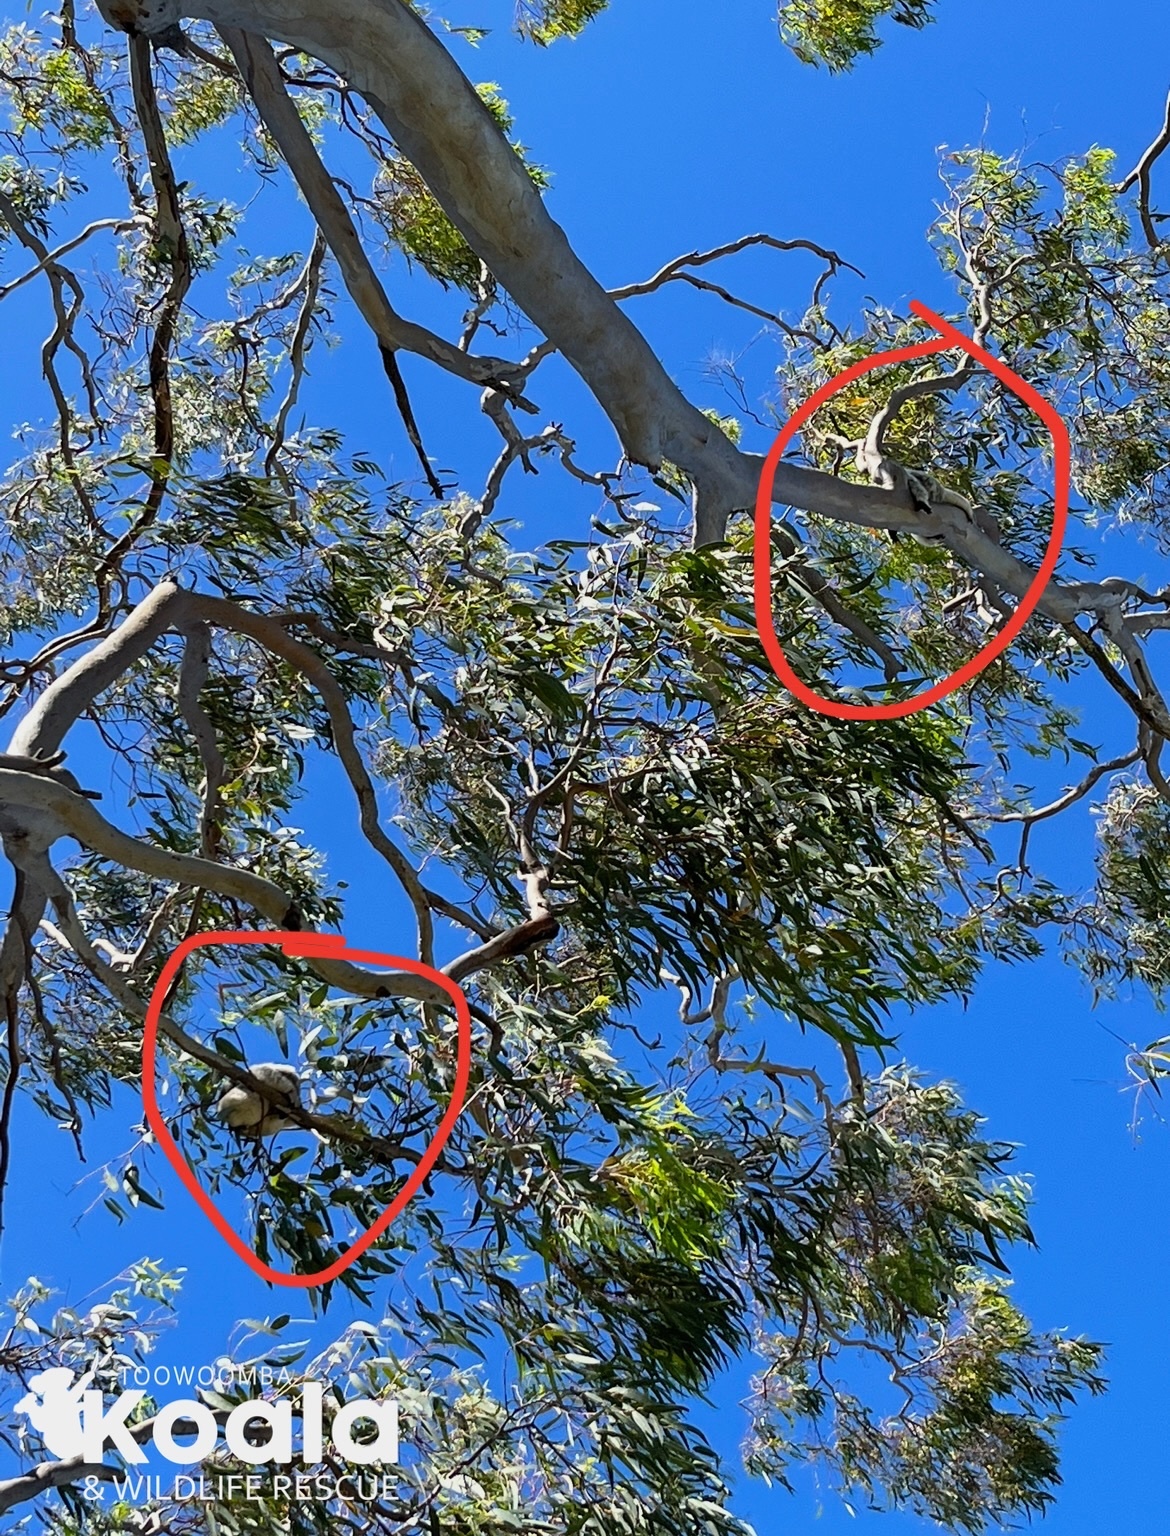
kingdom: Animalia
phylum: Chordata
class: Mammalia
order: Diprotodontia
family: Phascolarctidae
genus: Phascolarctos
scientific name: Phascolarctos cinereus
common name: Koala
